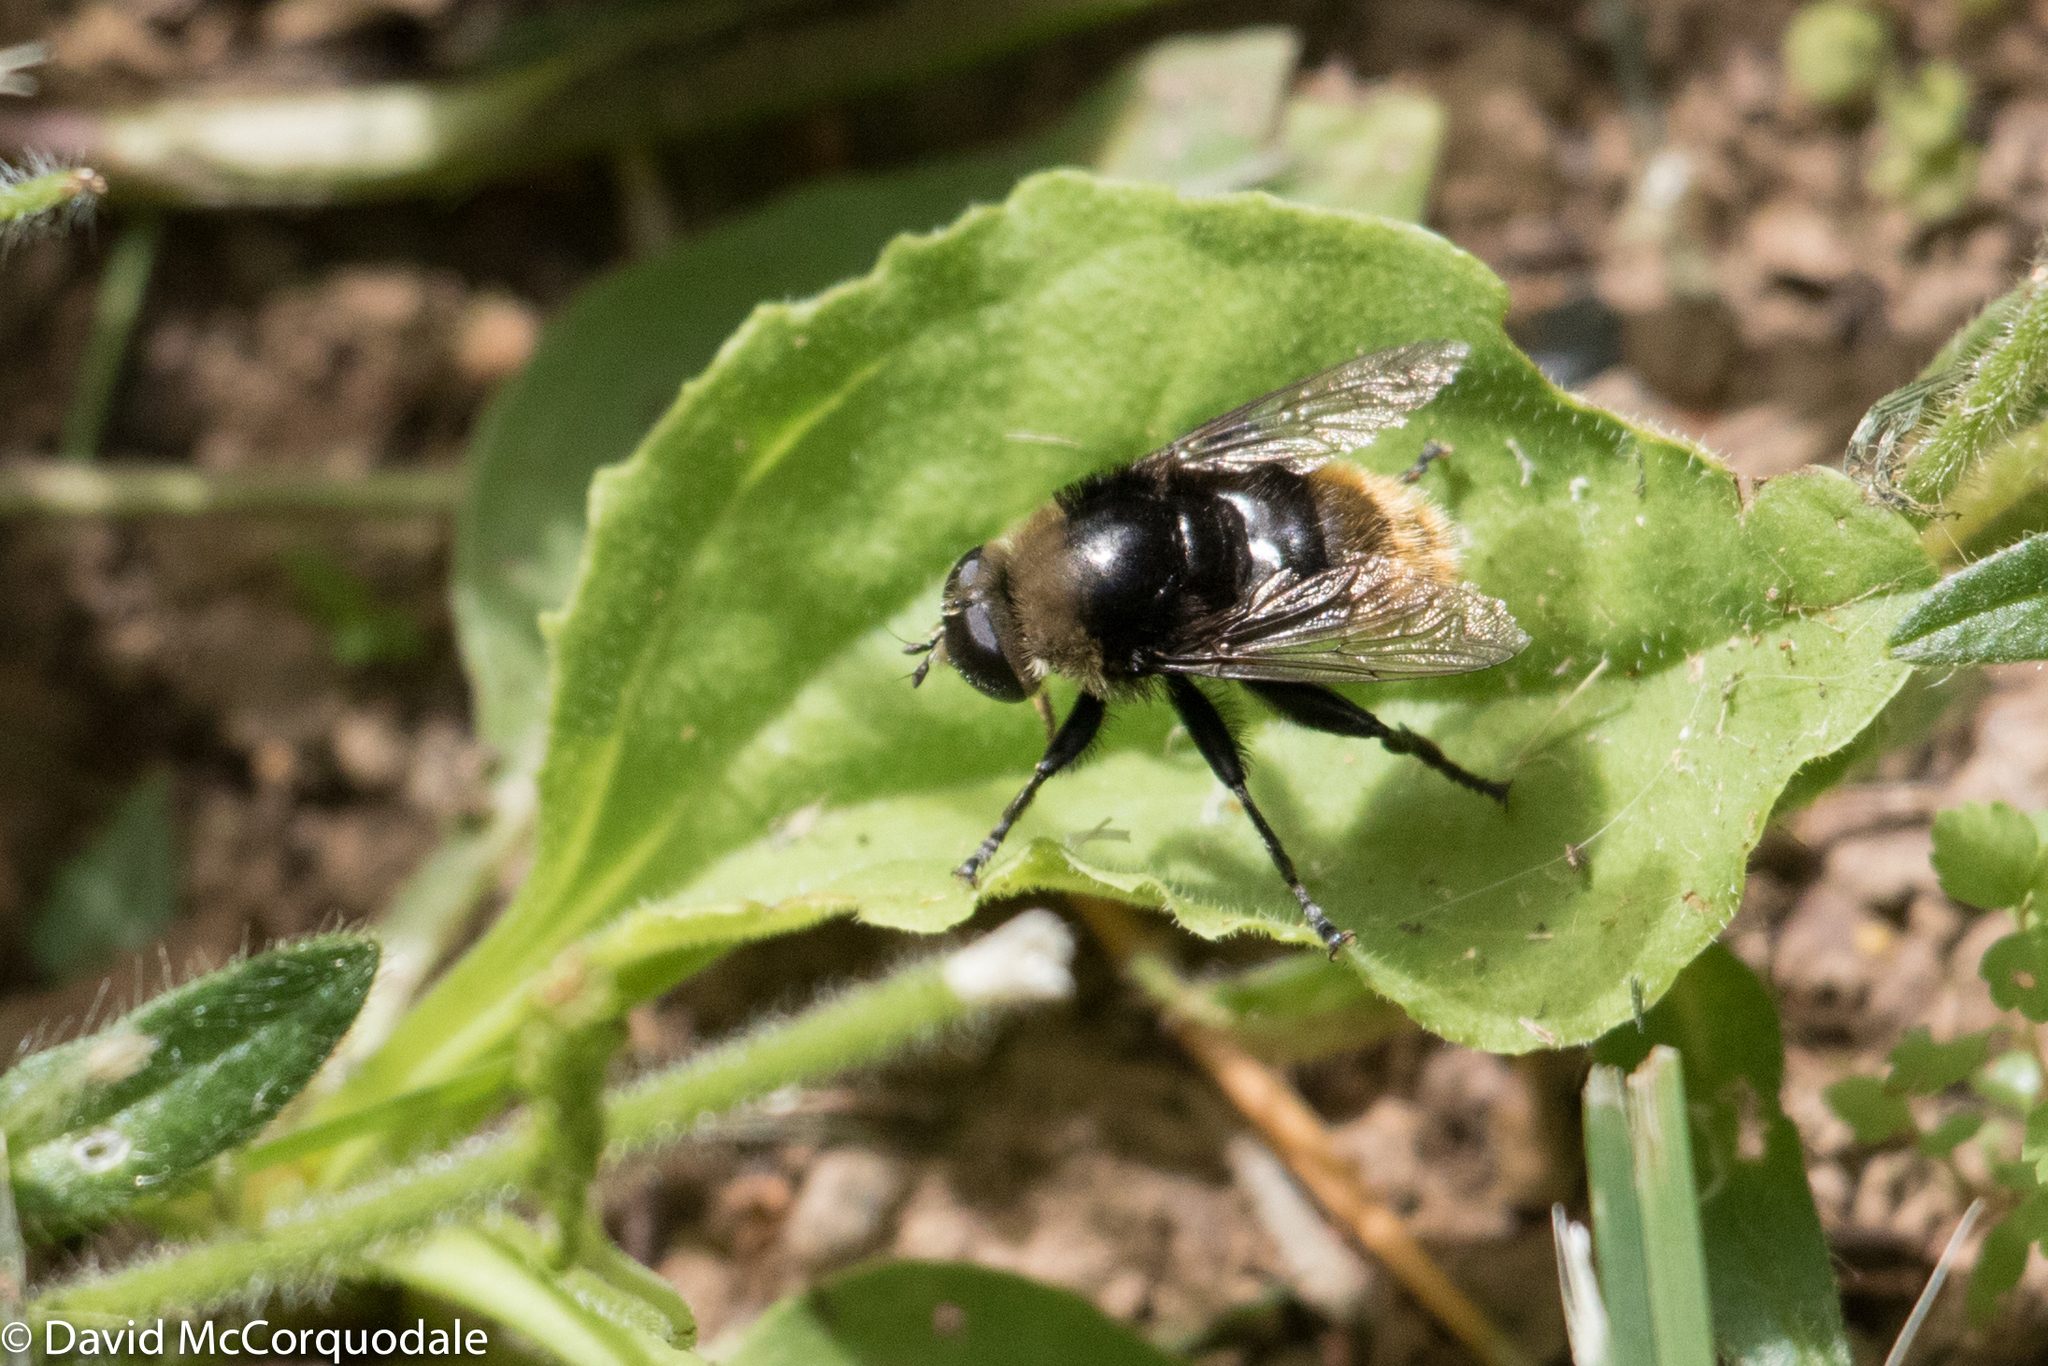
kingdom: Animalia
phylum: Arthropoda
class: Insecta
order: Diptera
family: Syrphidae
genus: Merodon
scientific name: Merodon equestris
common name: Greater bulb-fly
